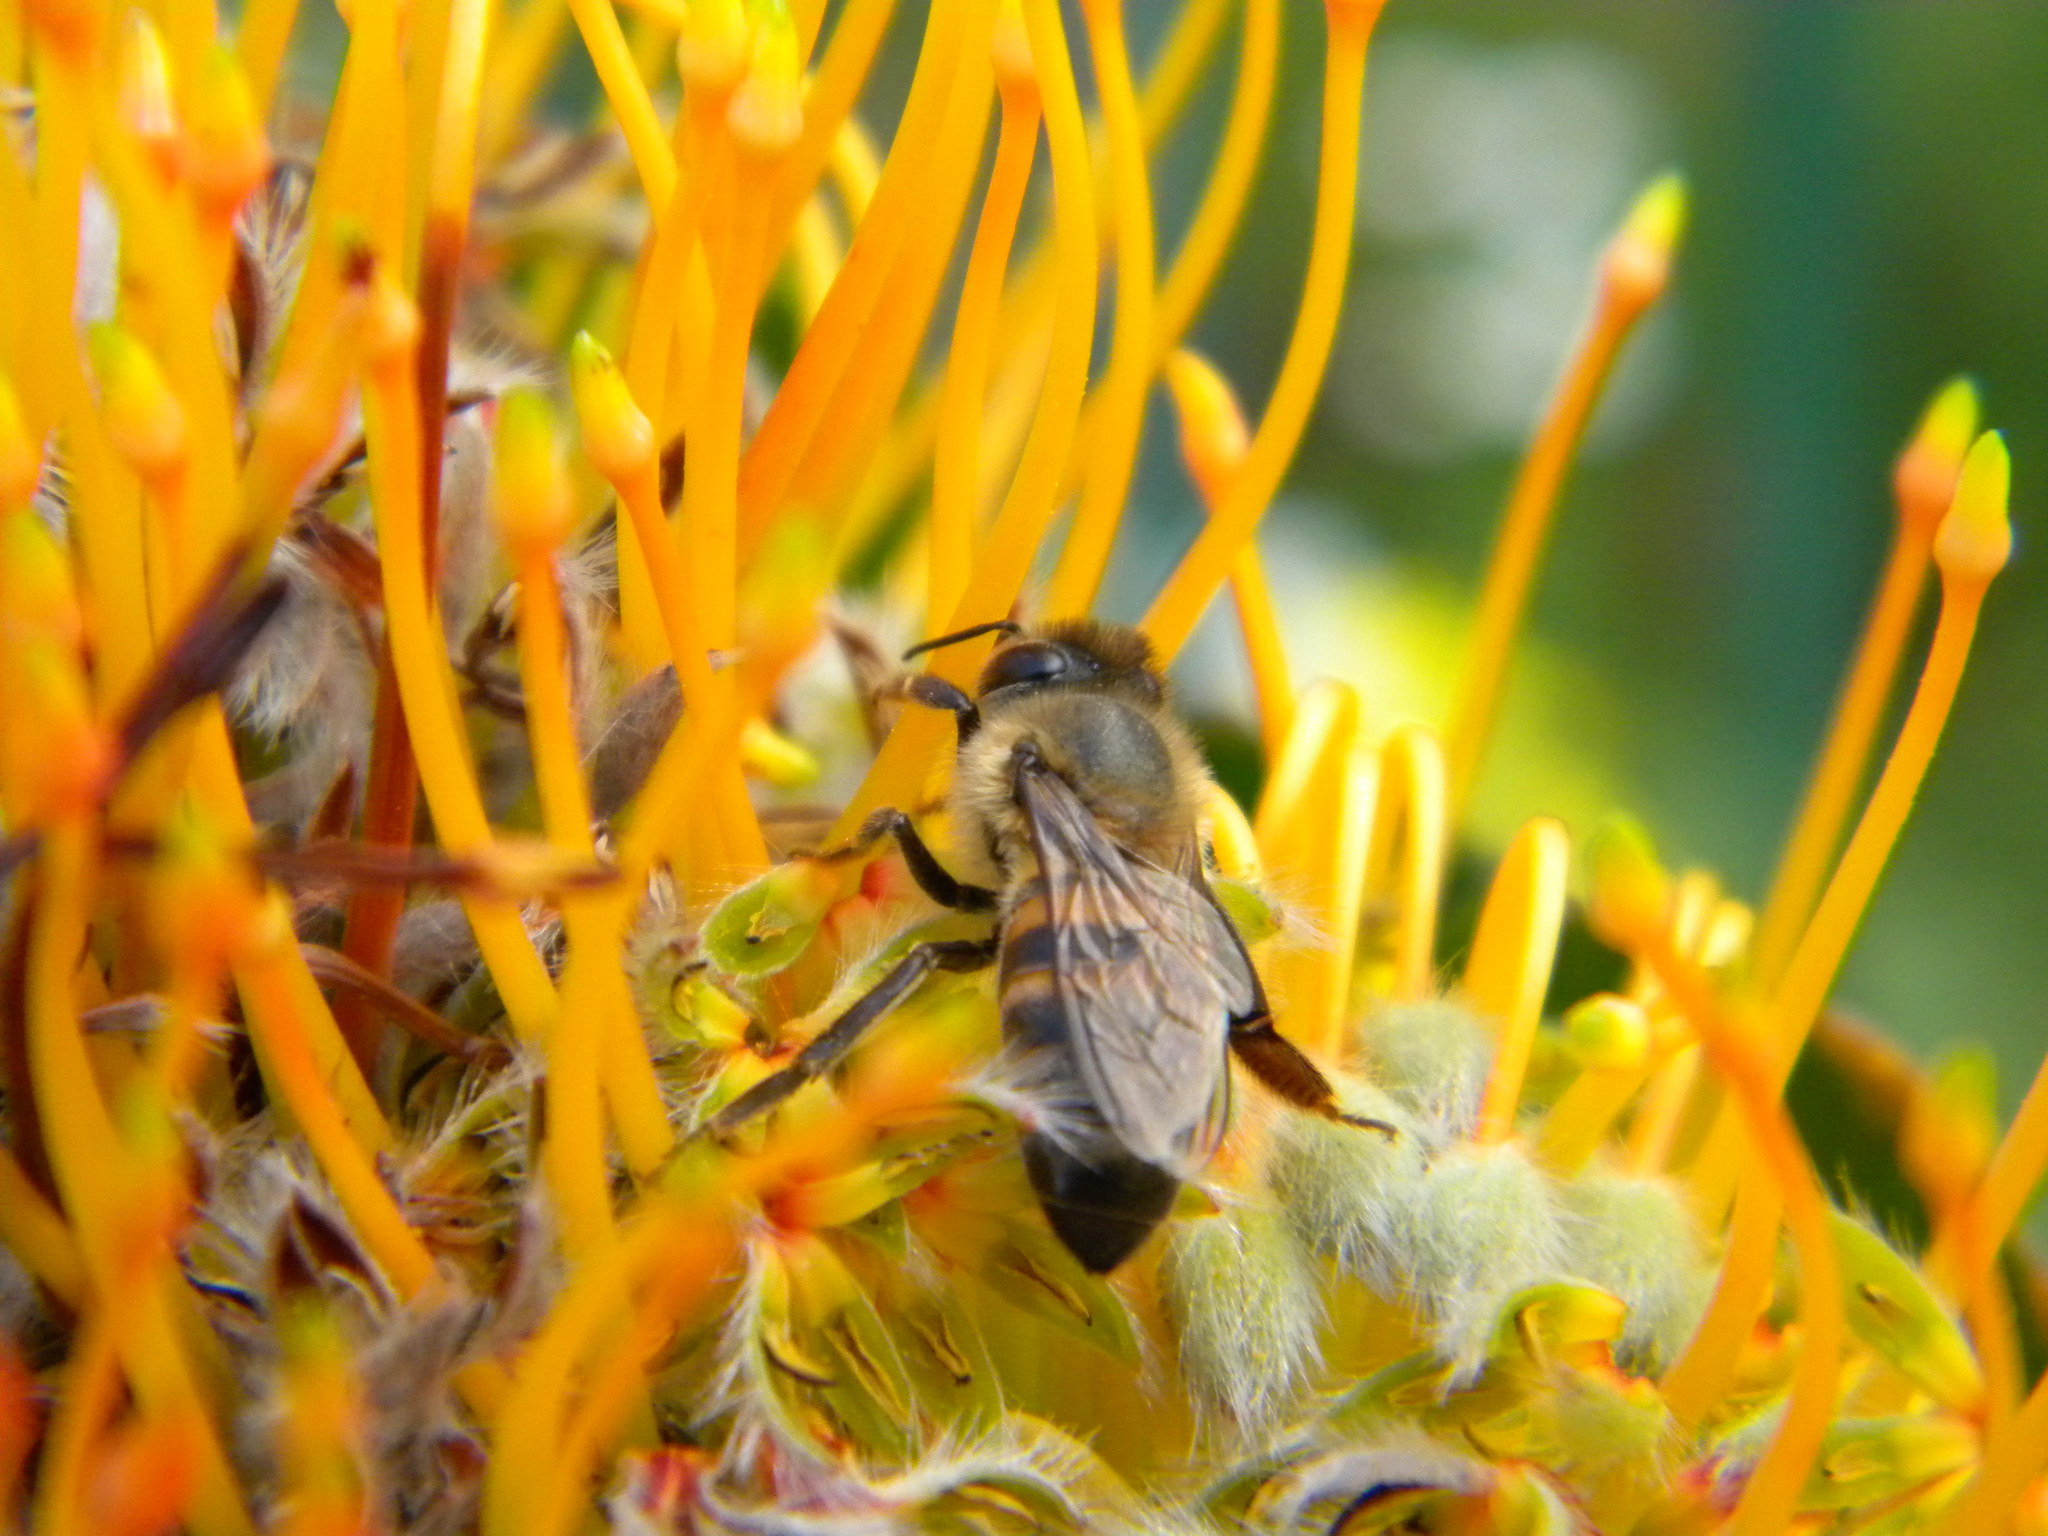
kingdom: Animalia
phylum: Arthropoda
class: Insecta
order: Hymenoptera
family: Apidae
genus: Apis
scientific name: Apis mellifera
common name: Honey bee
